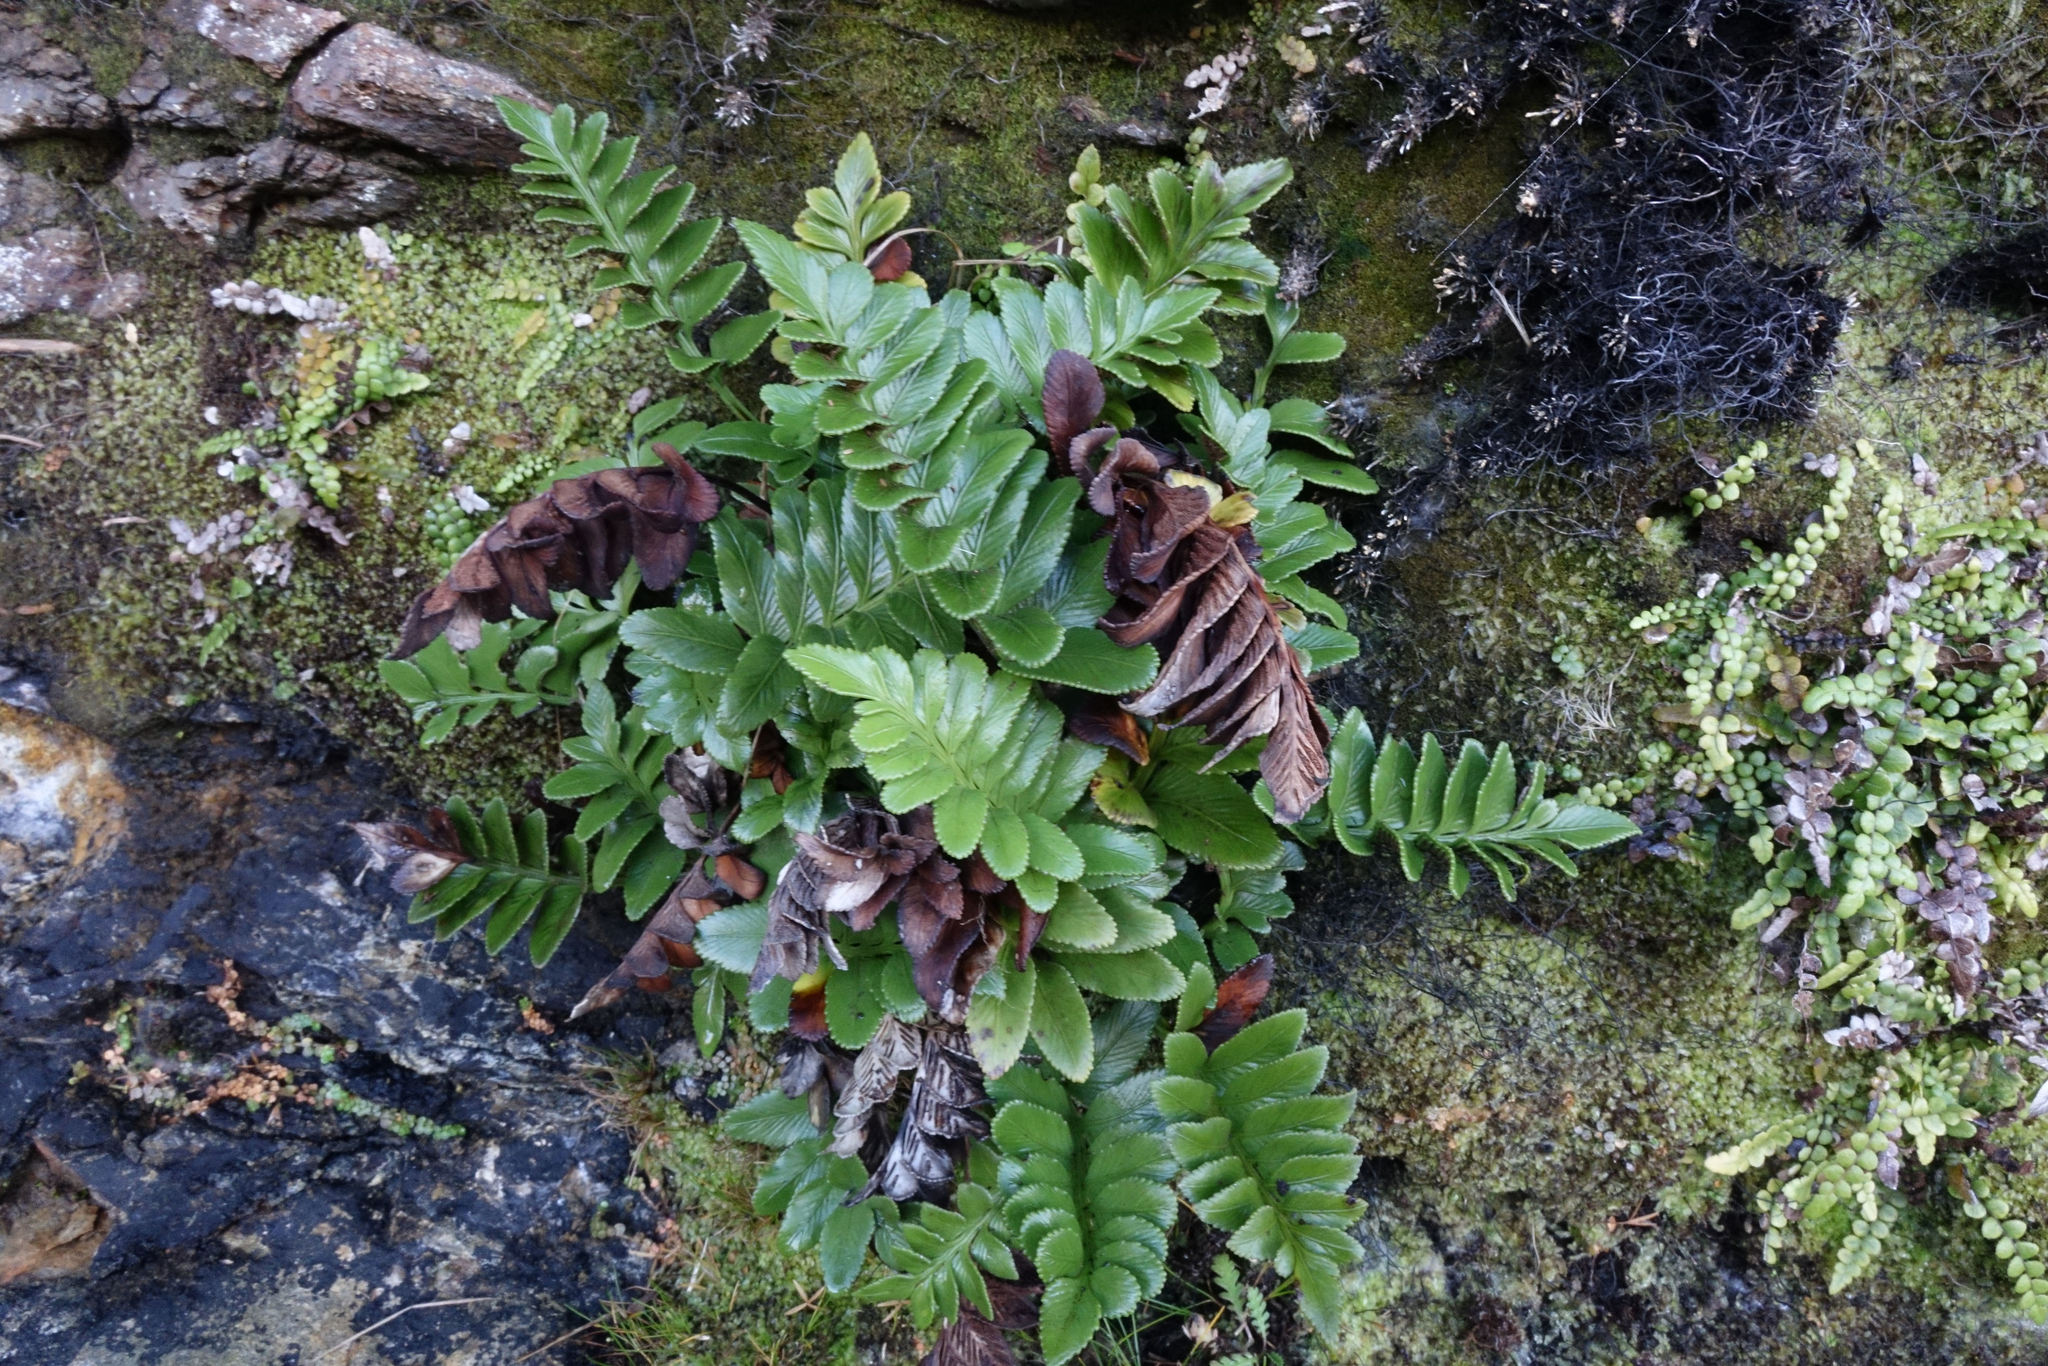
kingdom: Plantae
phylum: Tracheophyta
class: Polypodiopsida
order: Polypodiales
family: Aspleniaceae
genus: Asplenium
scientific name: Asplenium obtusatum
